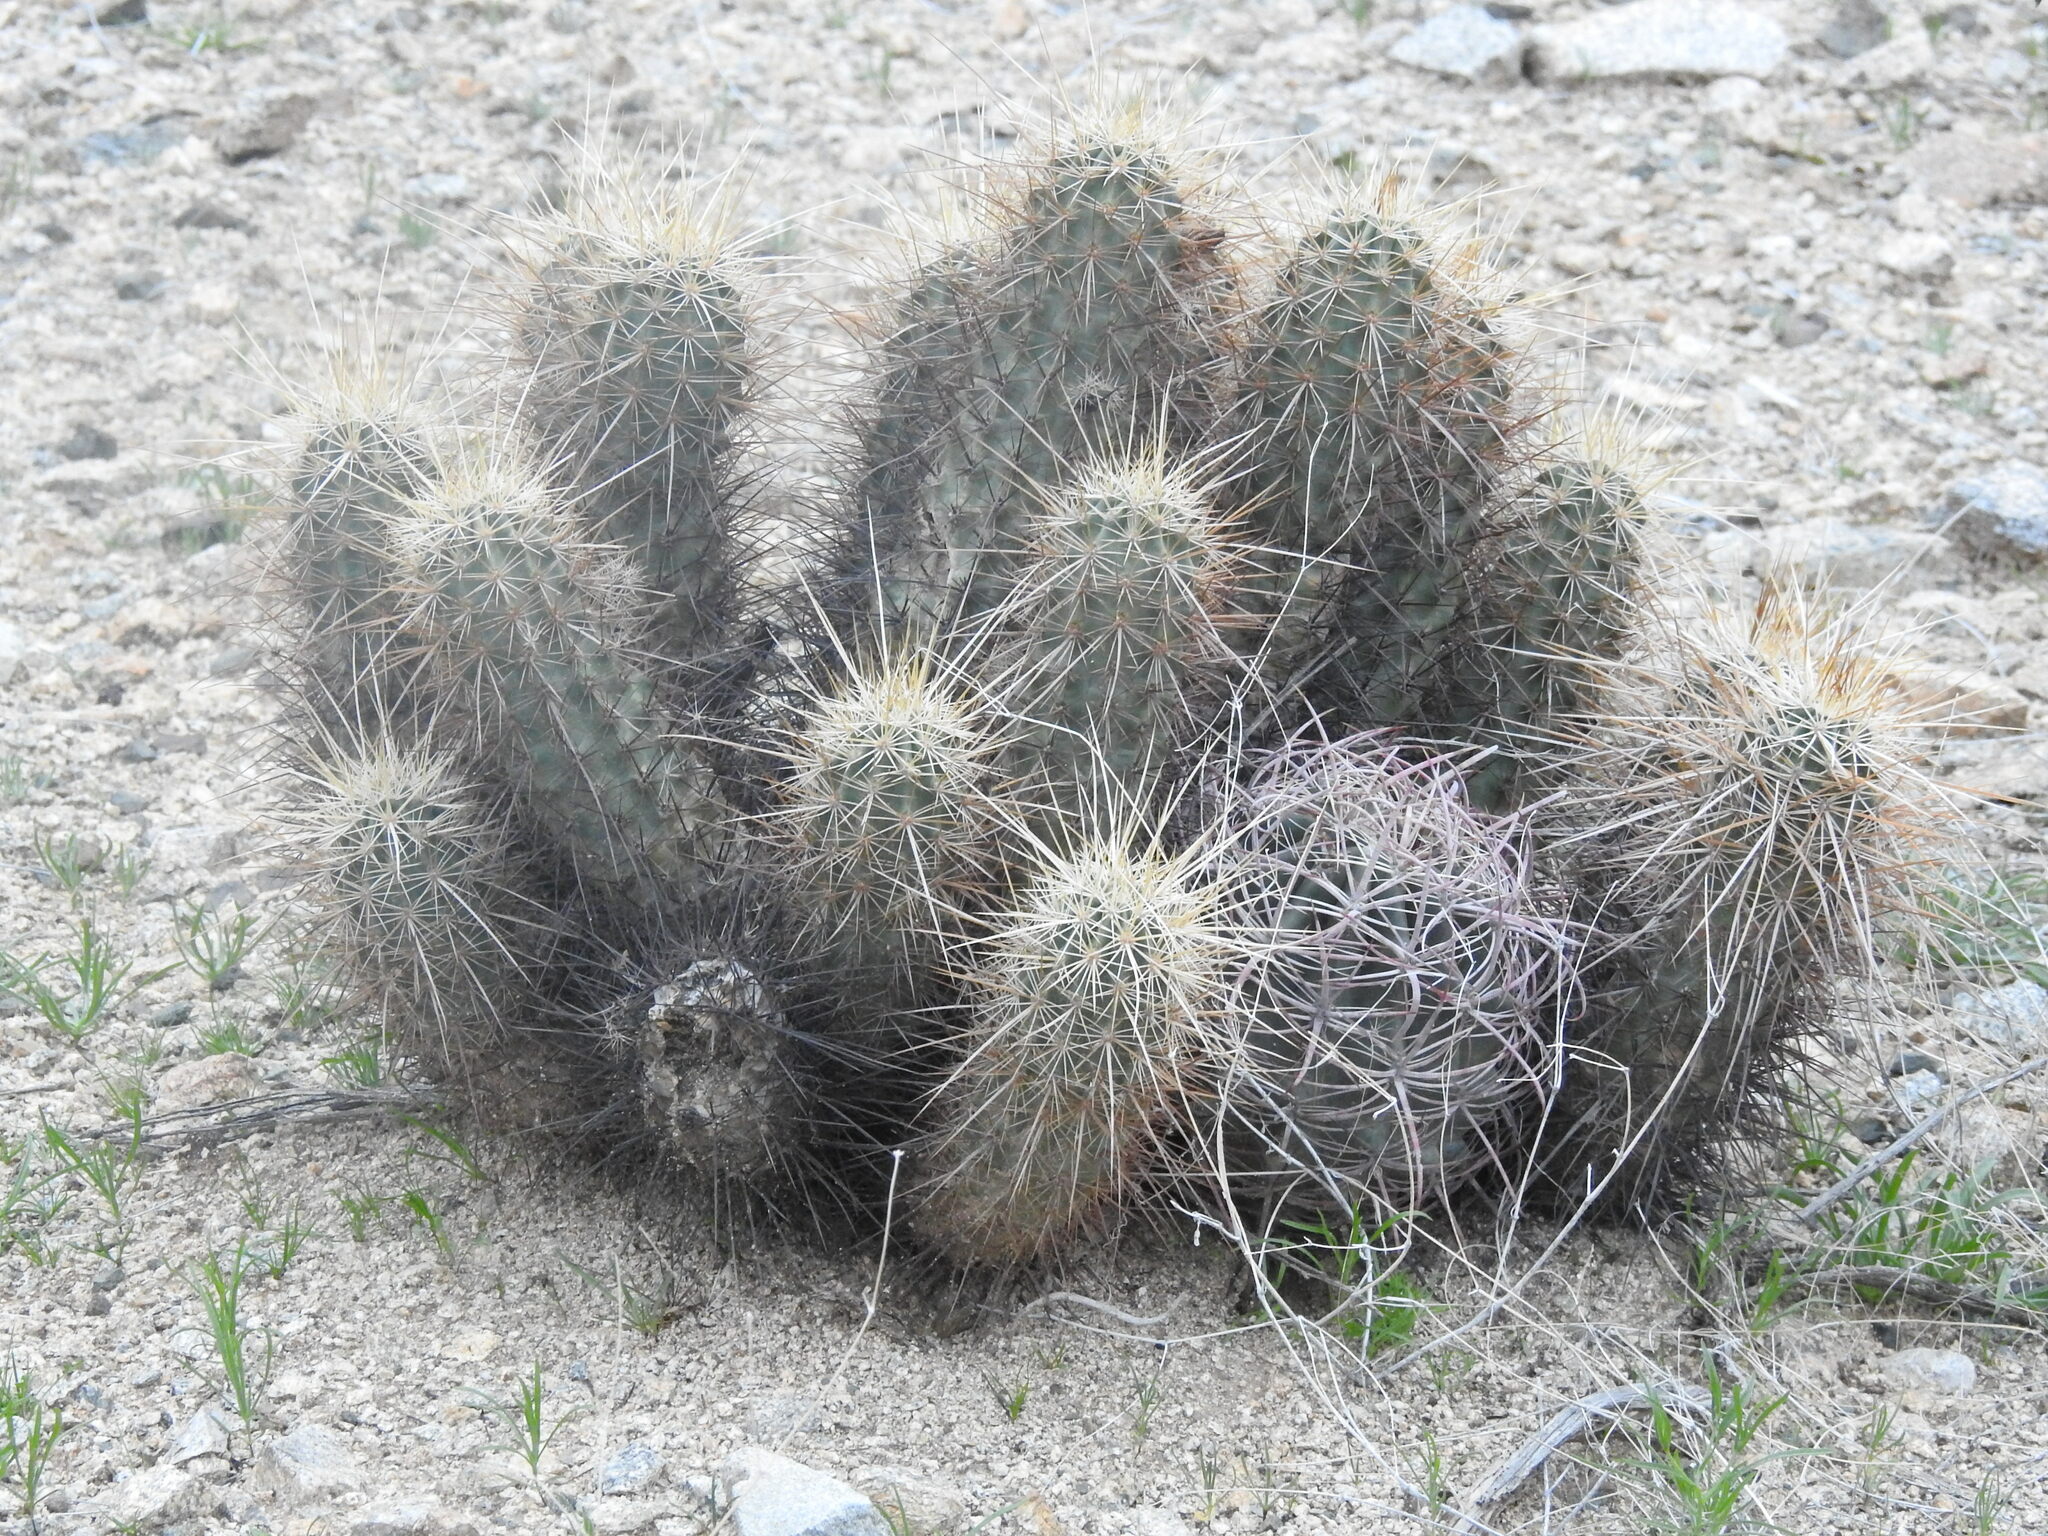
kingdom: Plantae
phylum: Tracheophyta
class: Magnoliopsida
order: Caryophyllales
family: Cactaceae
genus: Echinocereus
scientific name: Echinocereus engelmannii
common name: Engelmann's hedgehog cactus
